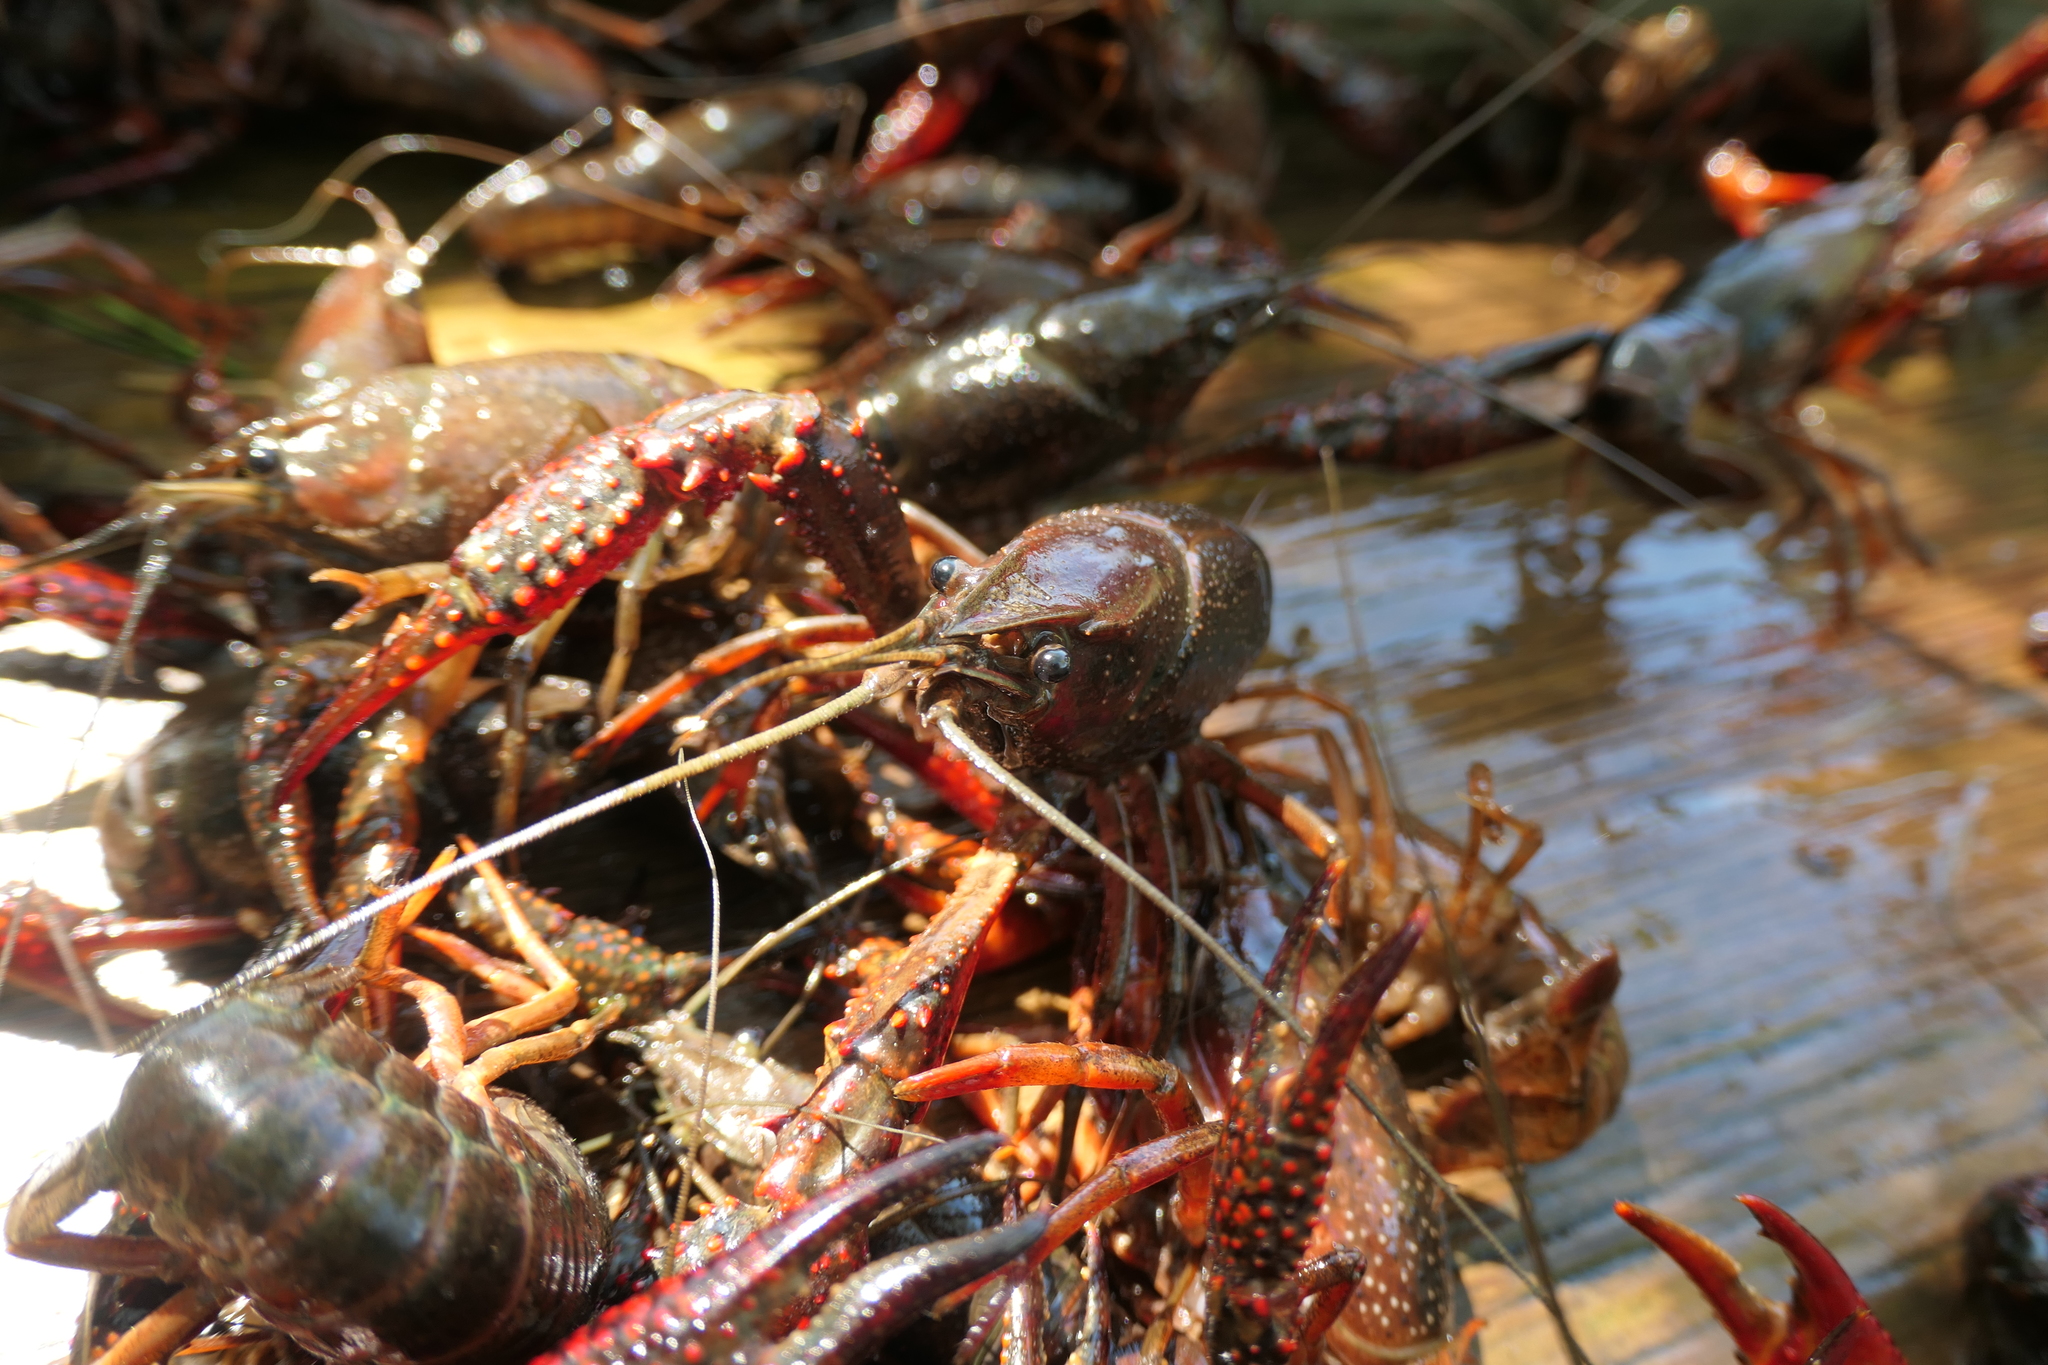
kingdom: Animalia
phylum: Arthropoda
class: Malacostraca
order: Decapoda
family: Cambaridae
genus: Procambarus
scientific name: Procambarus clarkii
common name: Red swamp crayfish
